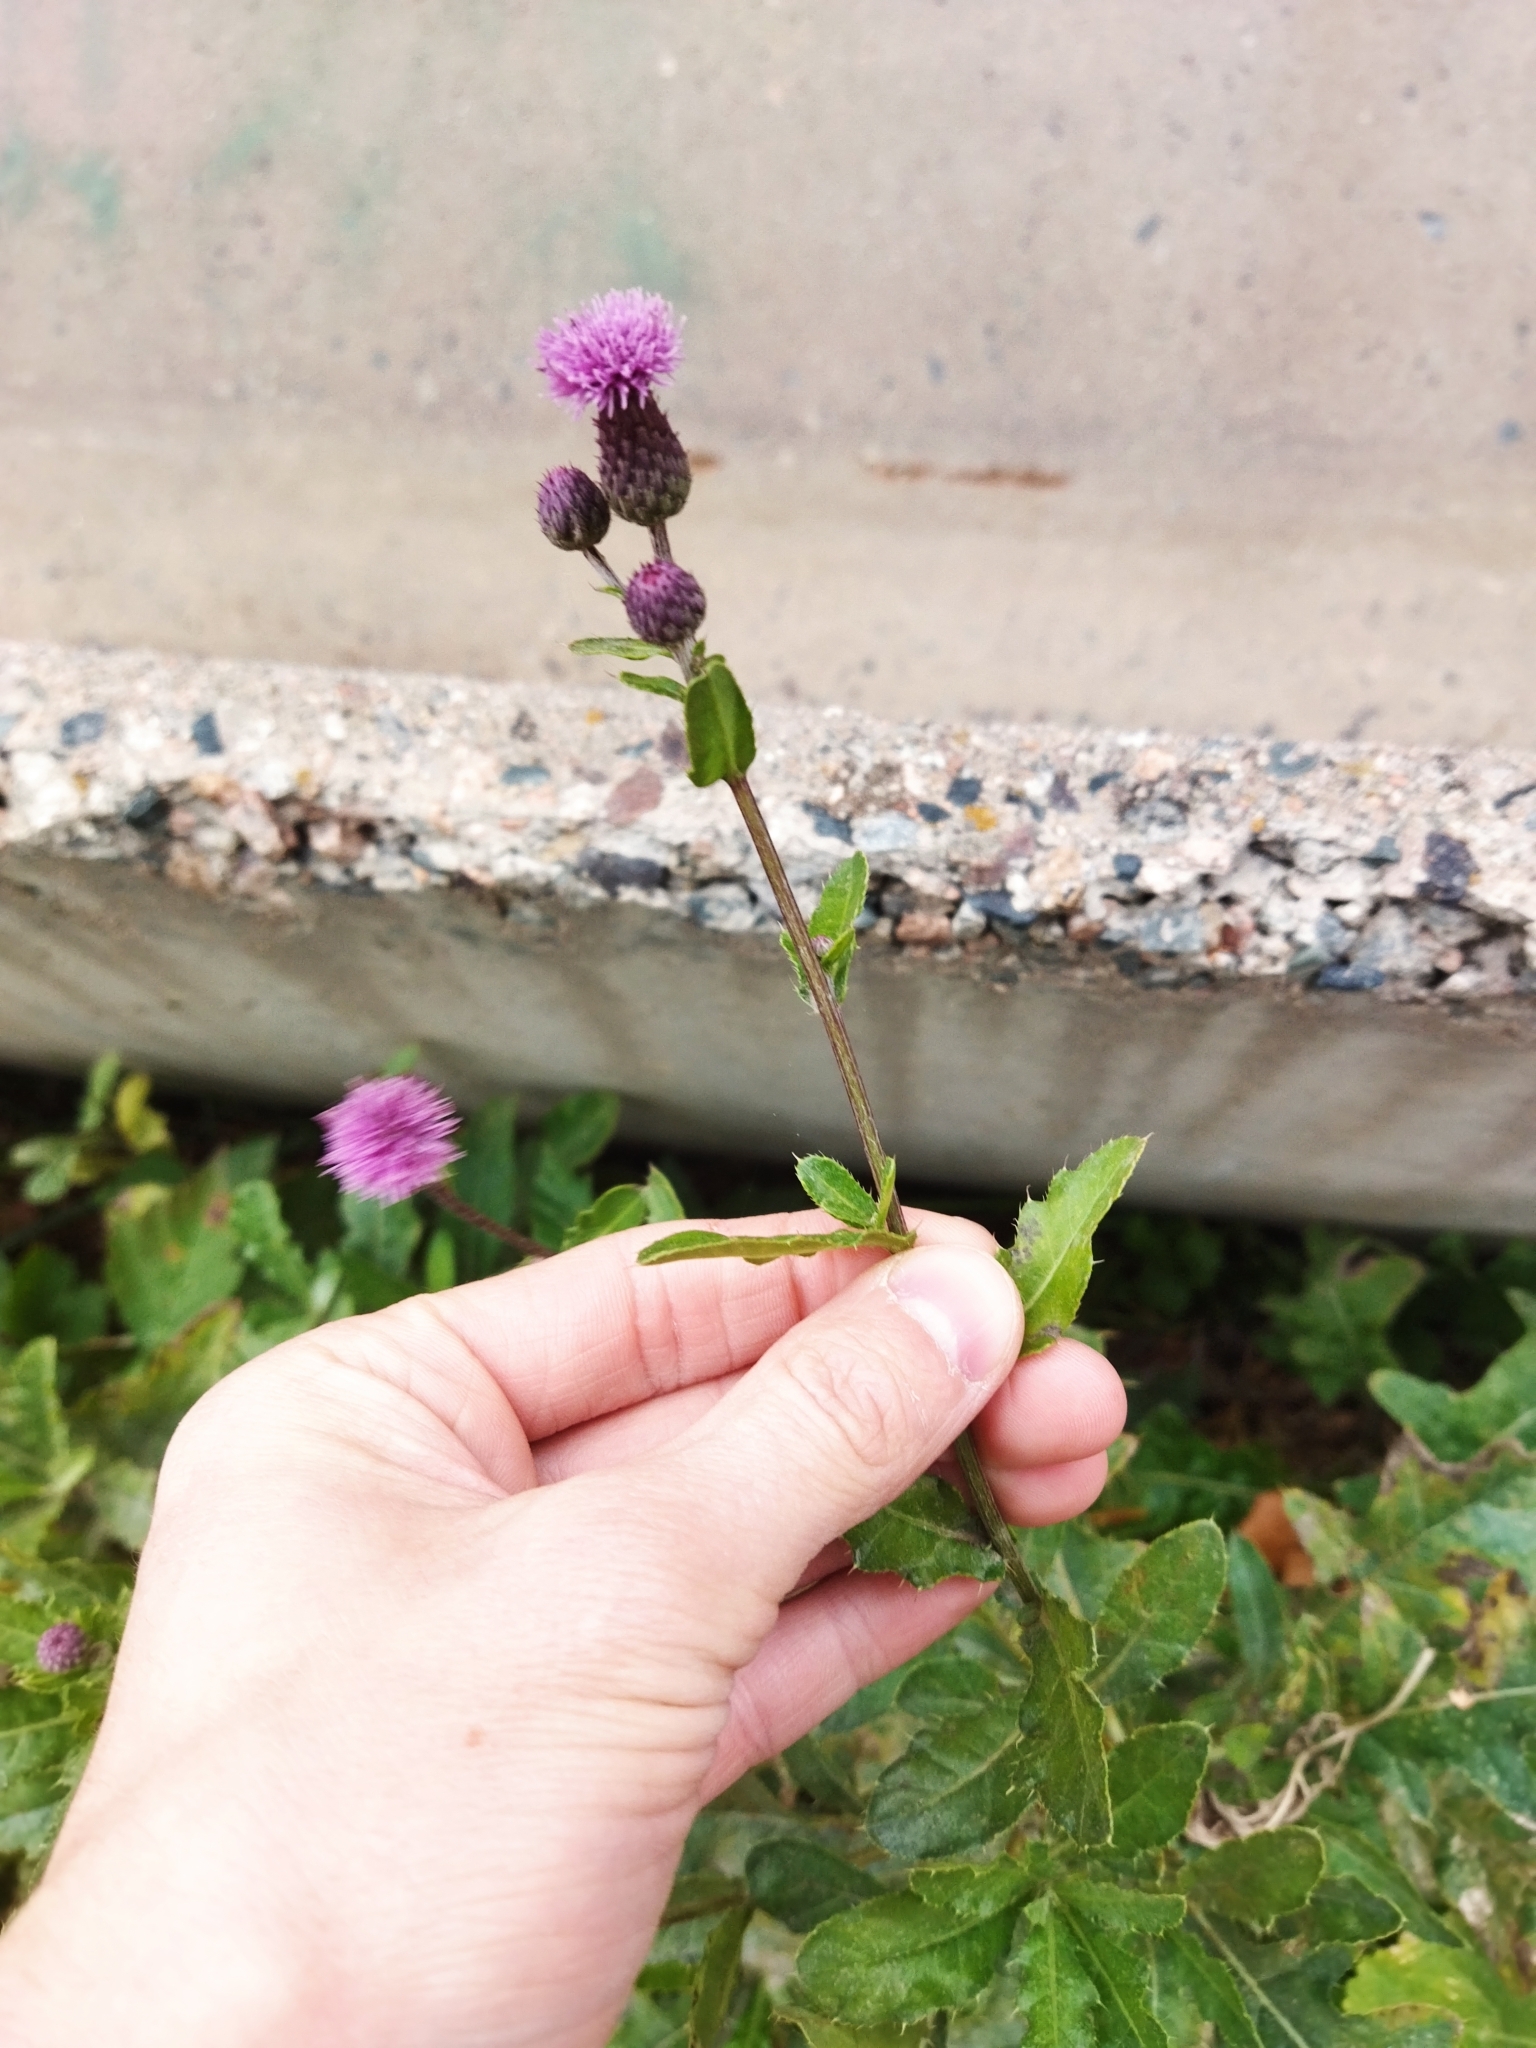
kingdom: Plantae
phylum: Tracheophyta
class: Magnoliopsida
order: Asterales
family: Asteraceae
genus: Cirsium
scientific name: Cirsium arvense
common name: Creeping thistle
